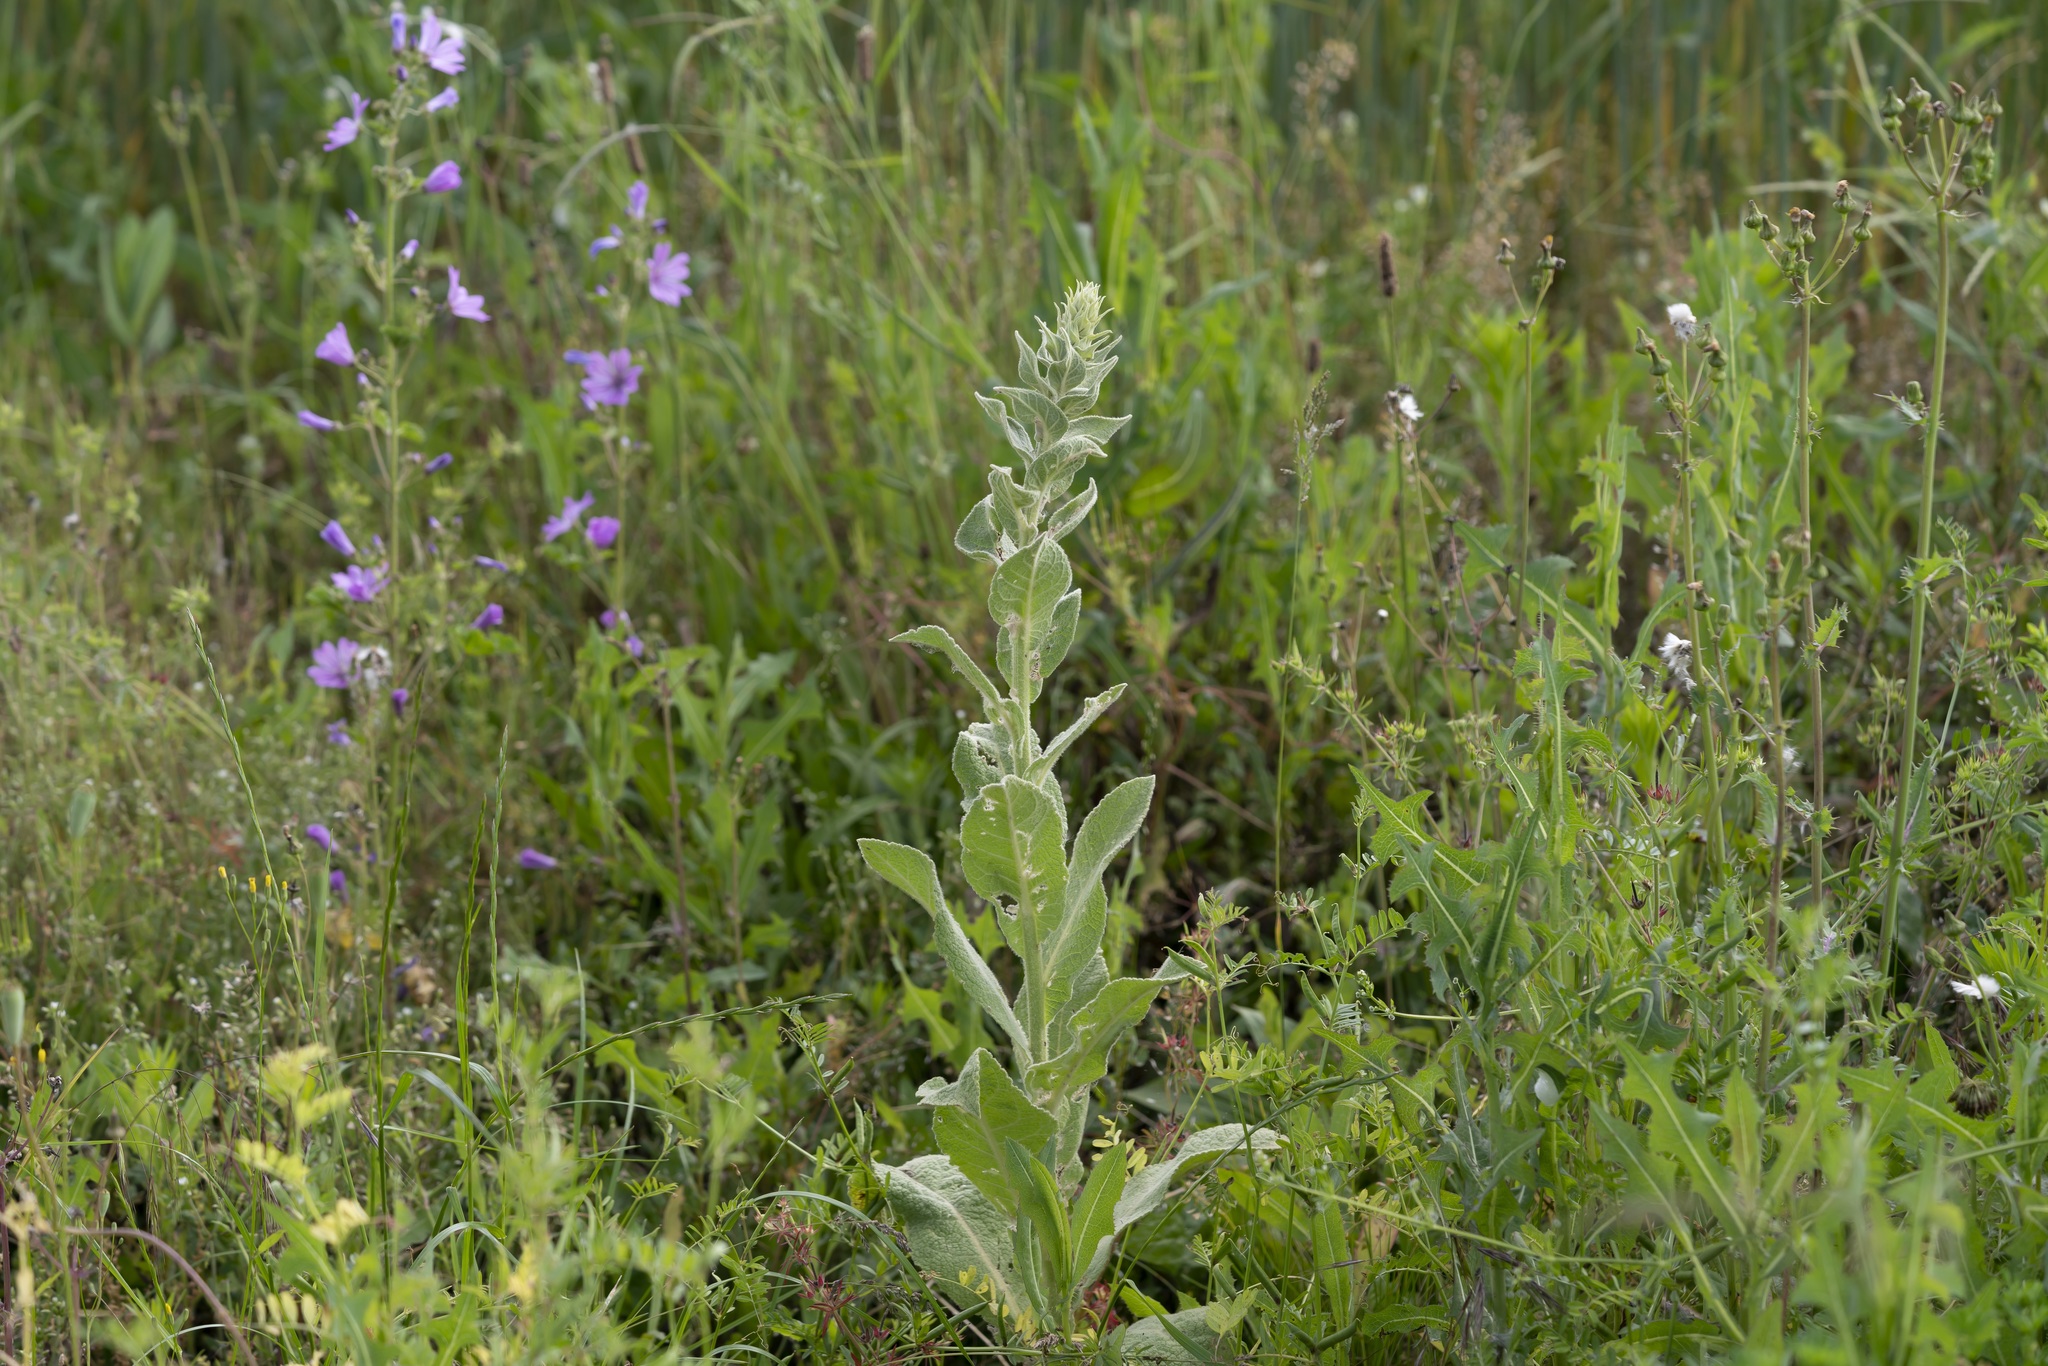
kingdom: Plantae
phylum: Tracheophyta
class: Magnoliopsida
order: Lamiales
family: Scrophulariaceae
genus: Verbascum
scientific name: Verbascum
